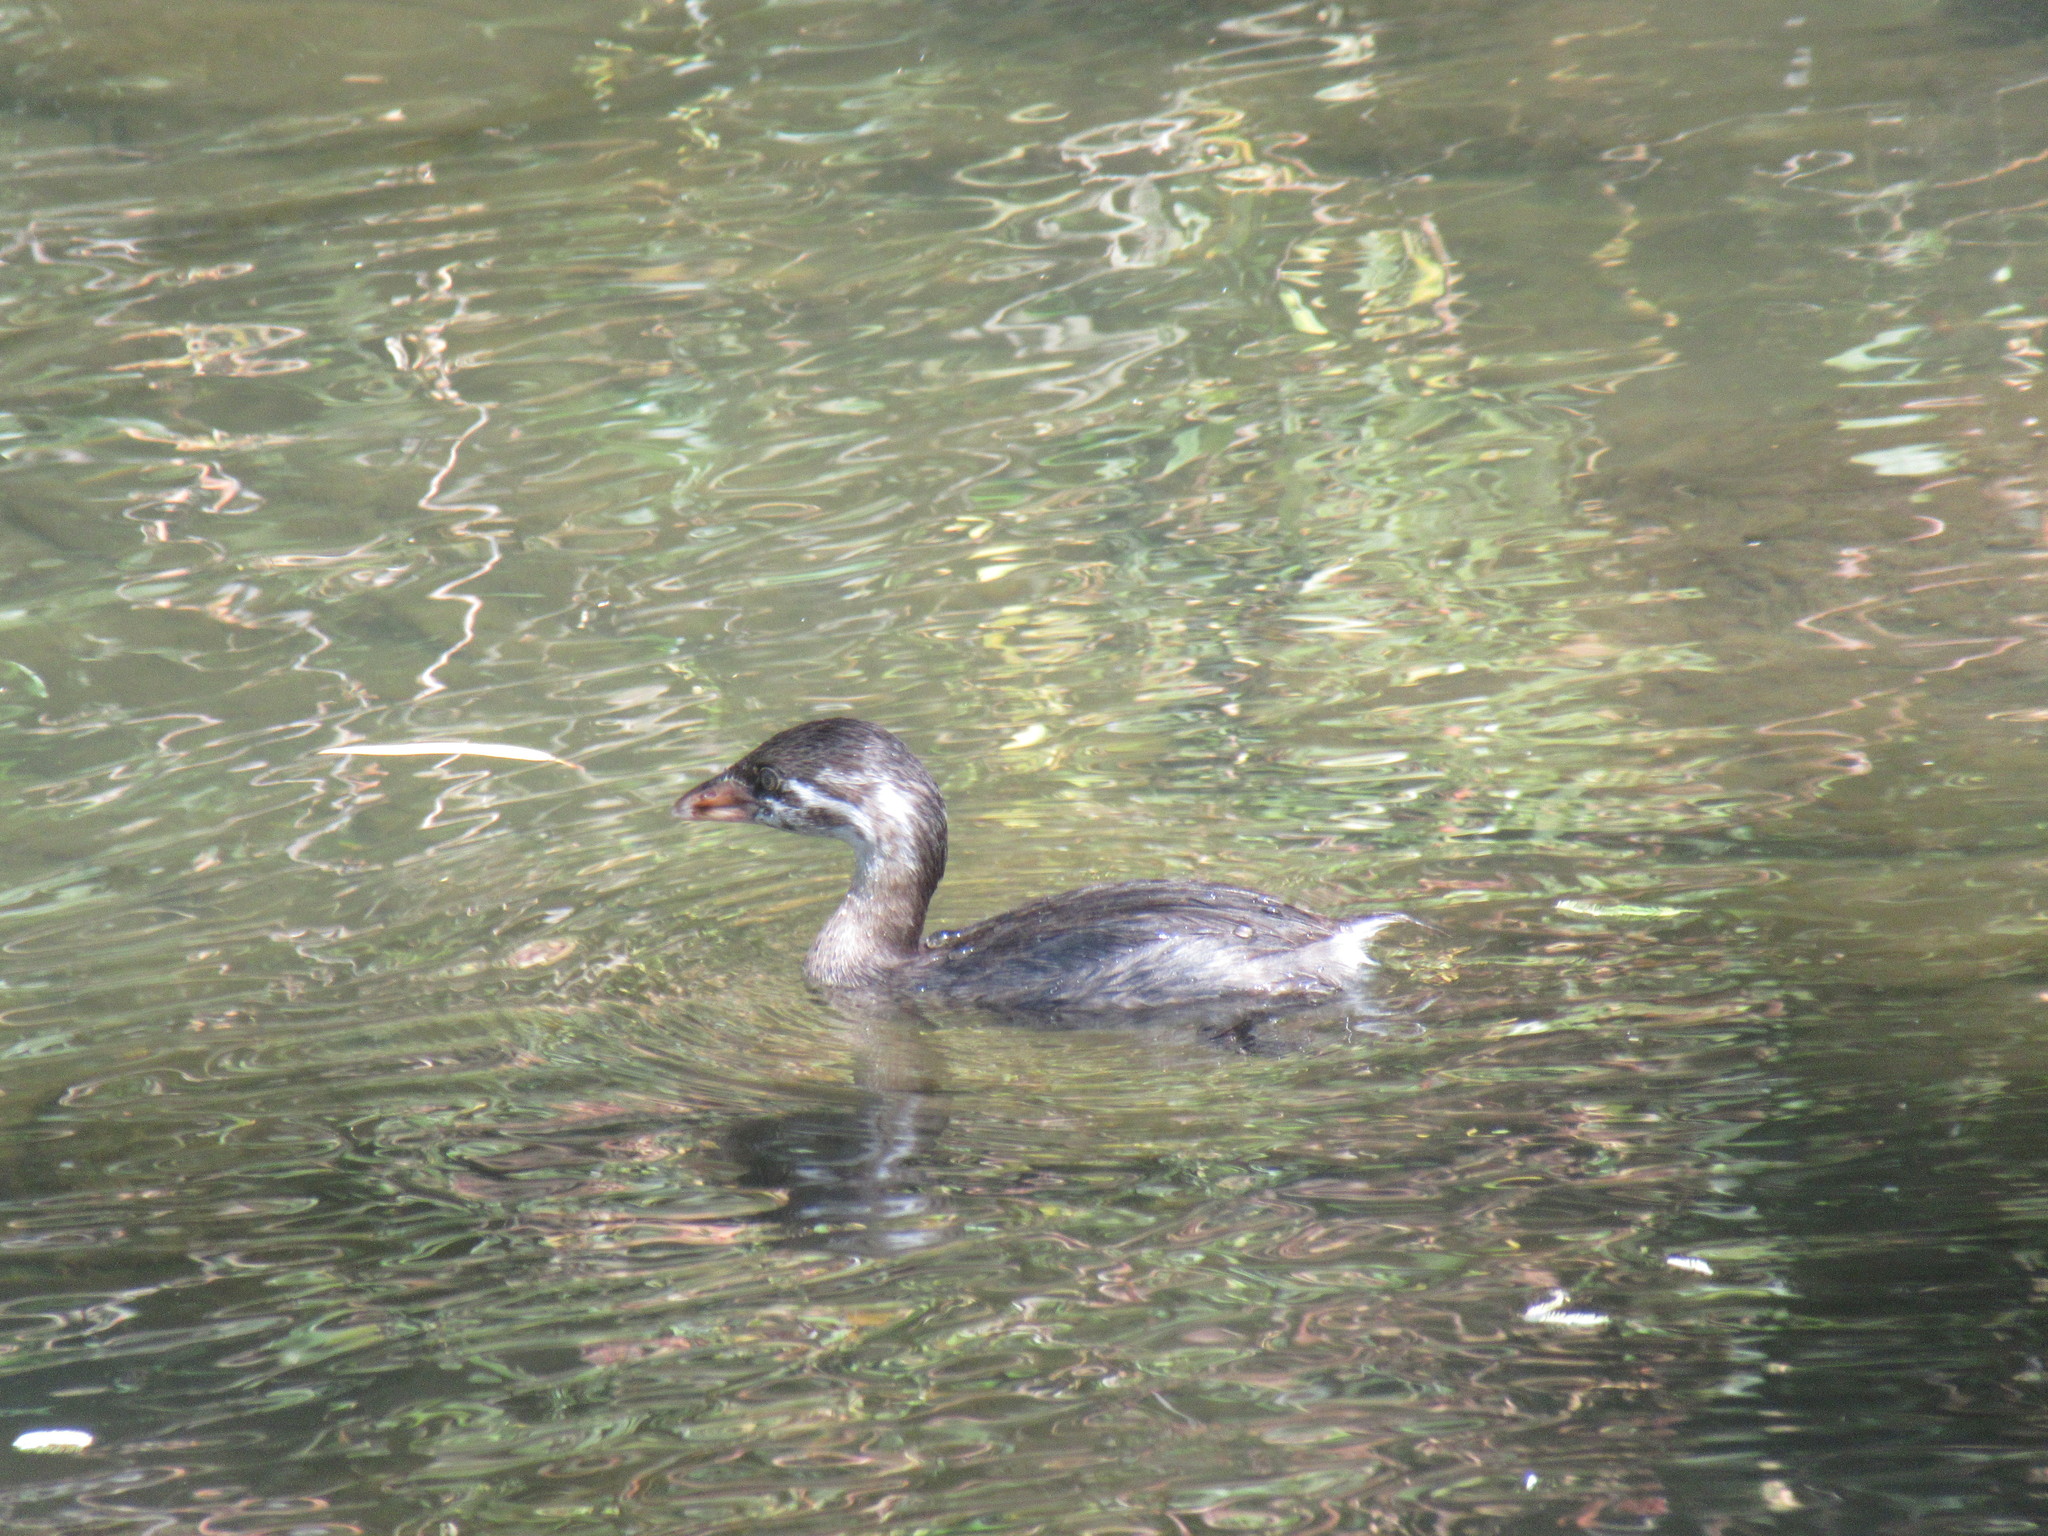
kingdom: Animalia
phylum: Chordata
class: Aves
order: Podicipediformes
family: Podicipedidae
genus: Podilymbus
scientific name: Podilymbus podiceps
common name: Pied-billed grebe
